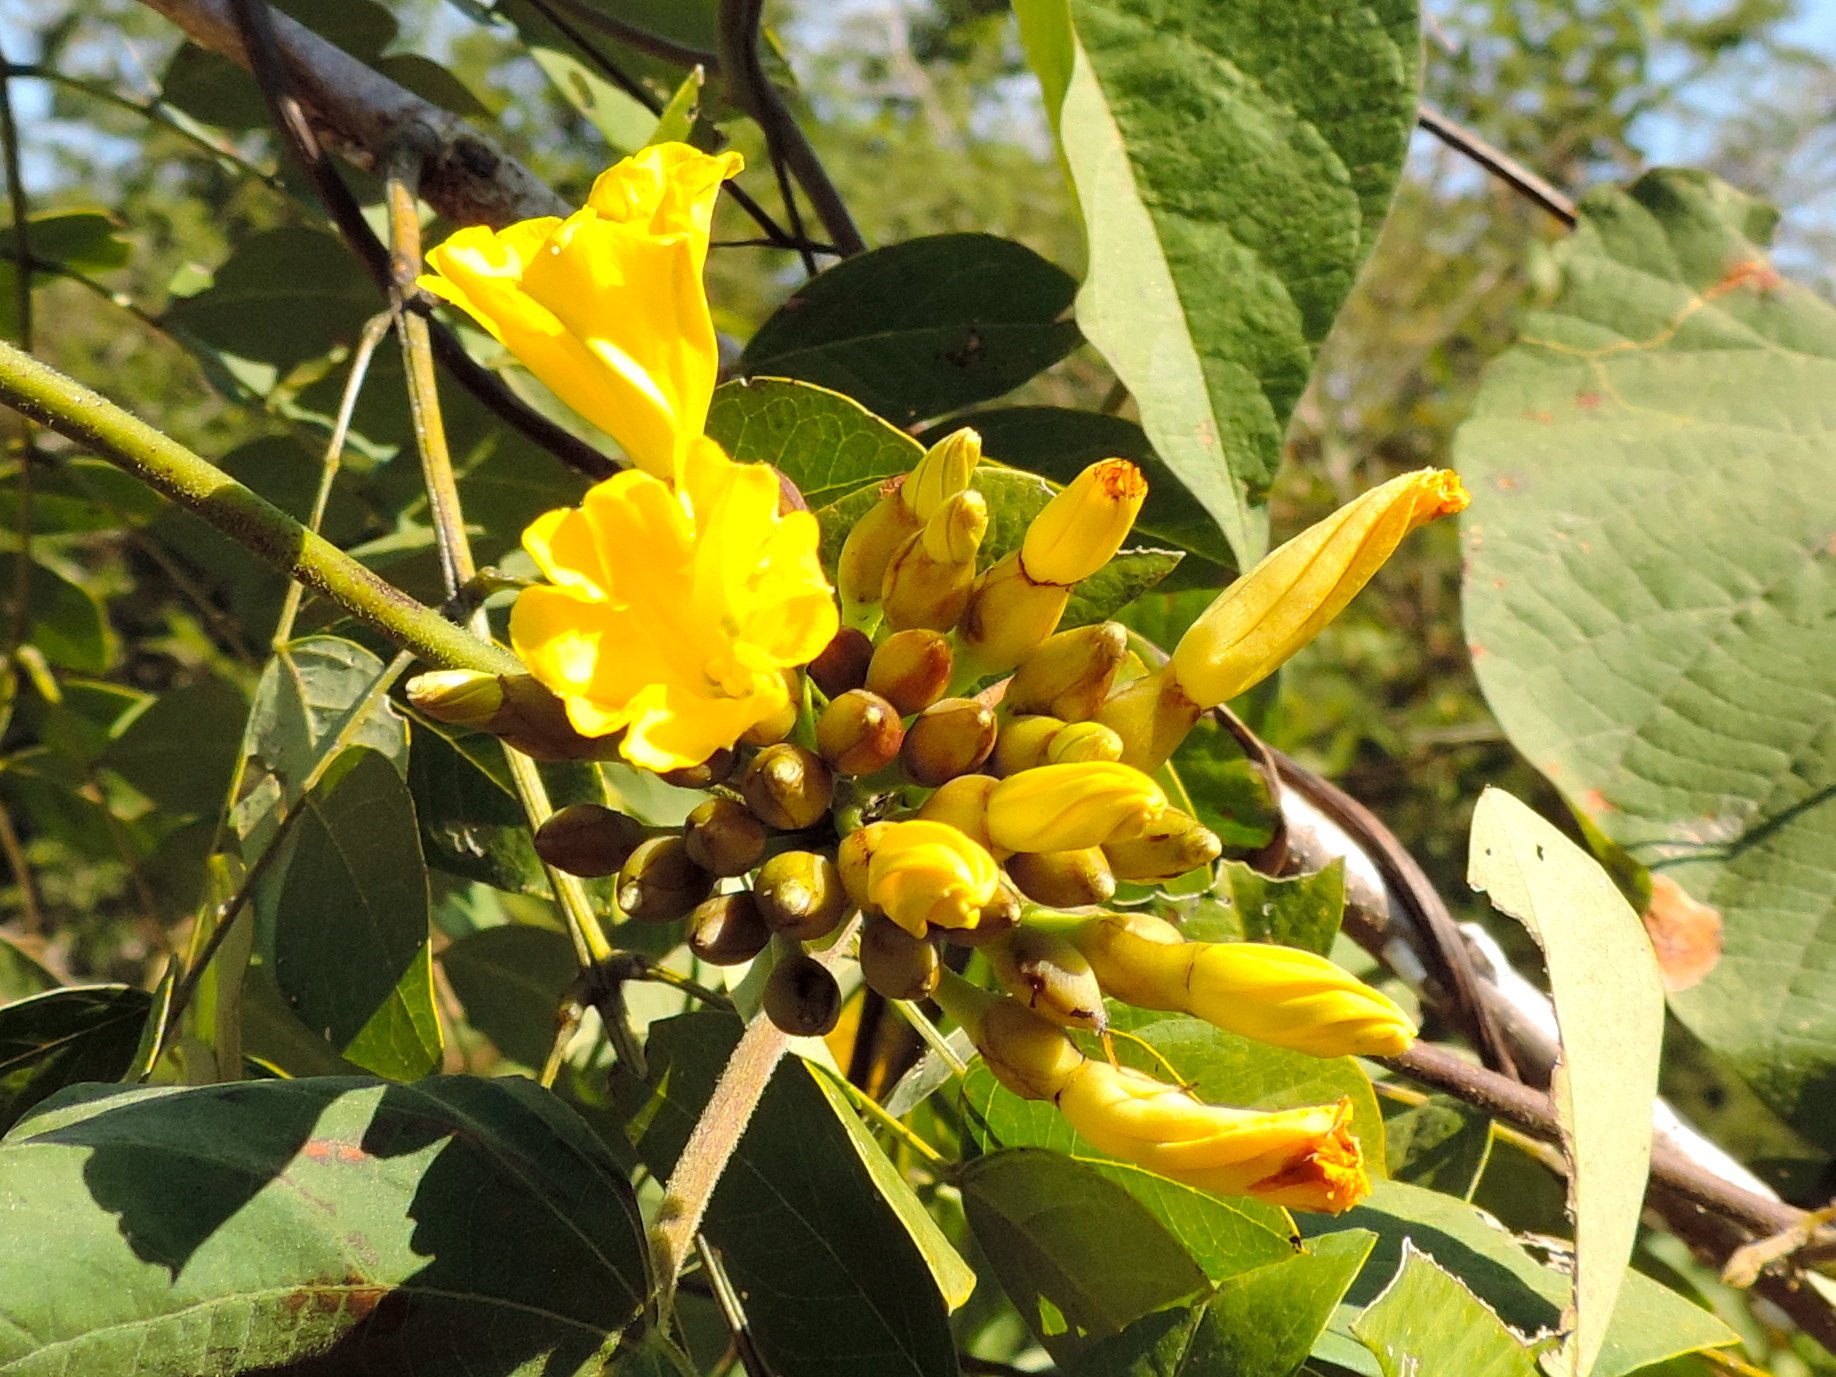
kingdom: Plantae
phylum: Tracheophyta
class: Magnoliopsida
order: Solanales
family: Convolvulaceae
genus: Camonea
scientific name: Camonea umbellata
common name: Hogvine
